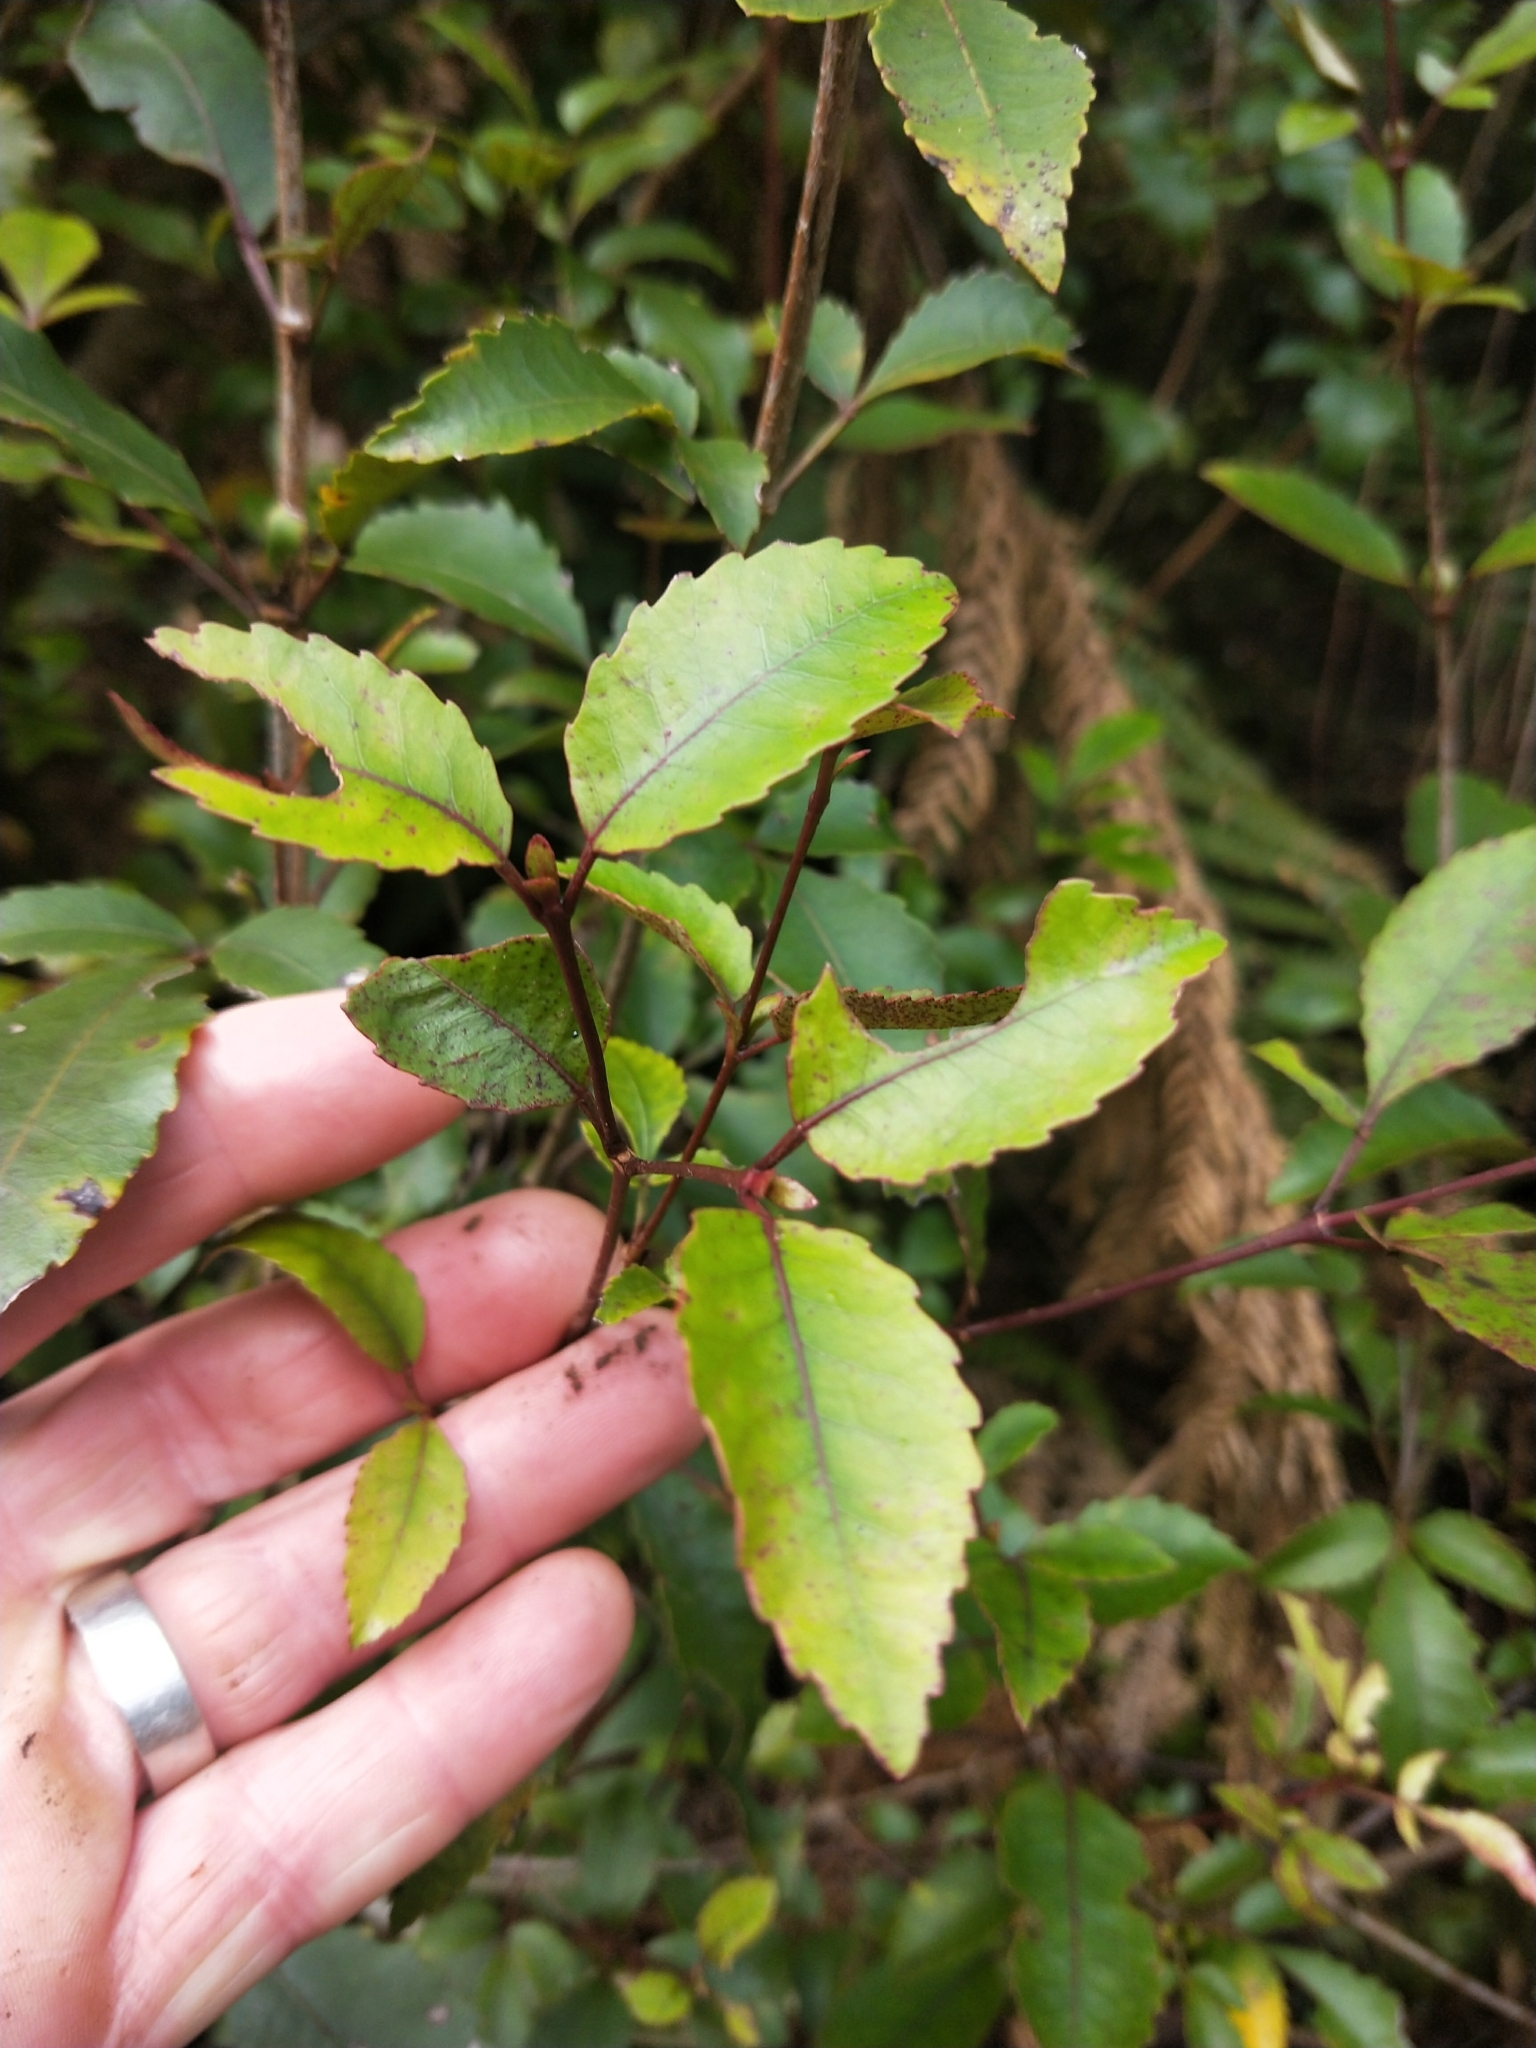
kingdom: Plantae
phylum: Tracheophyta
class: Magnoliopsida
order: Oxalidales
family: Cunoniaceae
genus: Pterophylla
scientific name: Pterophylla racemosa
